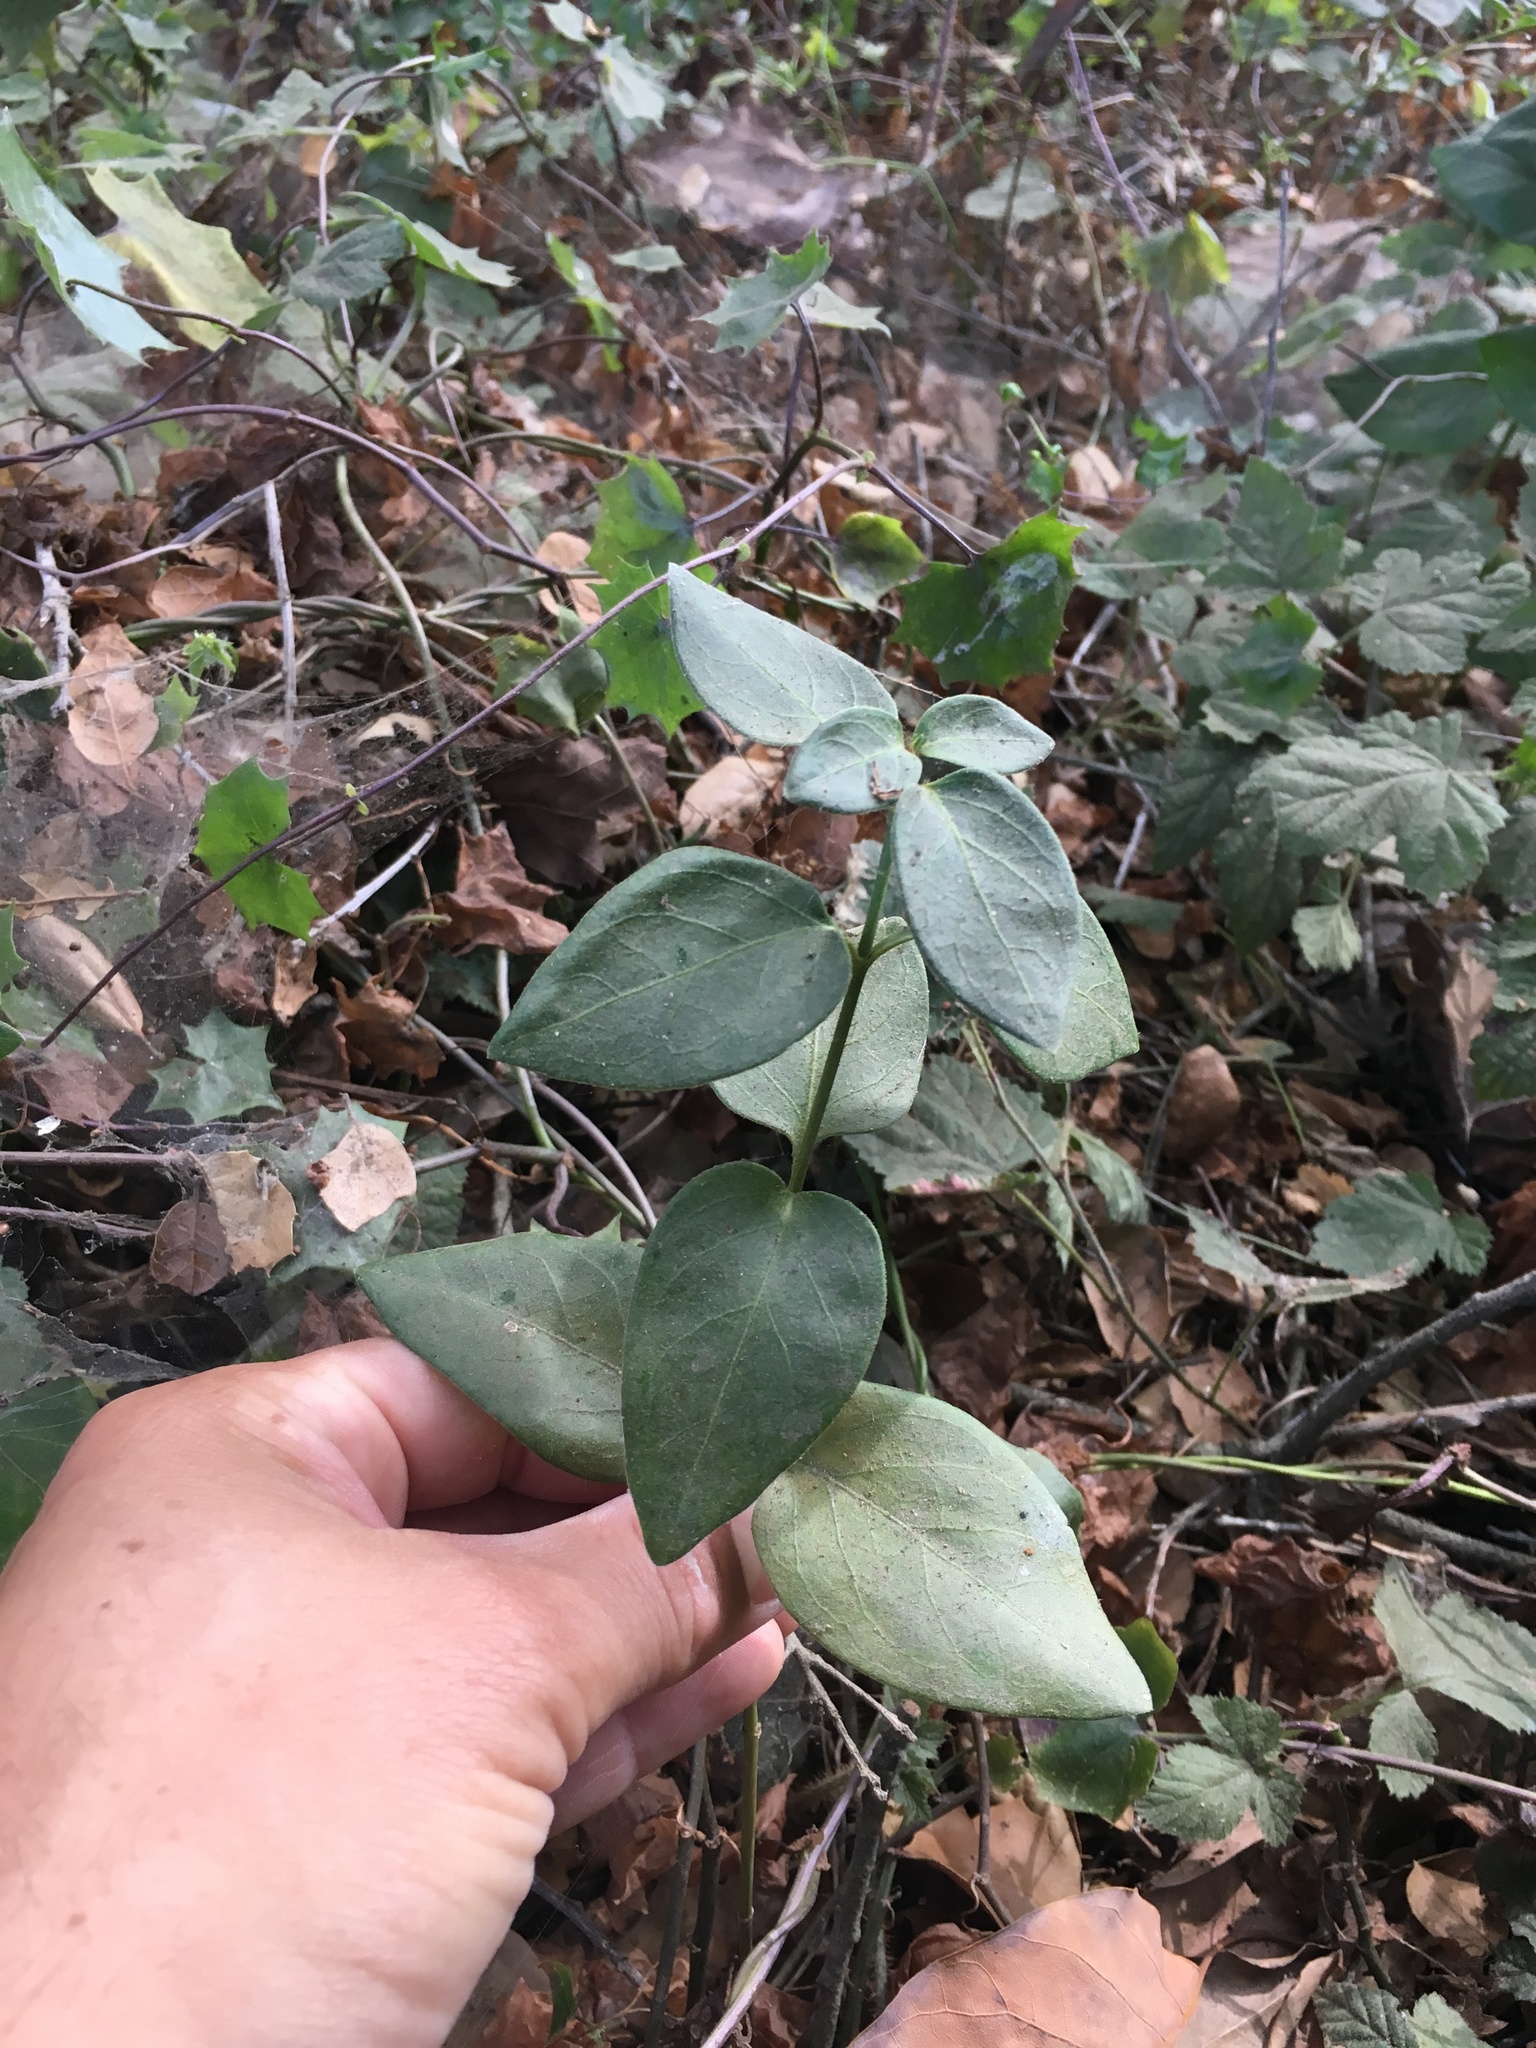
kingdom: Plantae
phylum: Tracheophyta
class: Magnoliopsida
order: Gentianales
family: Apocynaceae
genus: Vinca
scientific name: Vinca major
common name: Greater periwinkle
